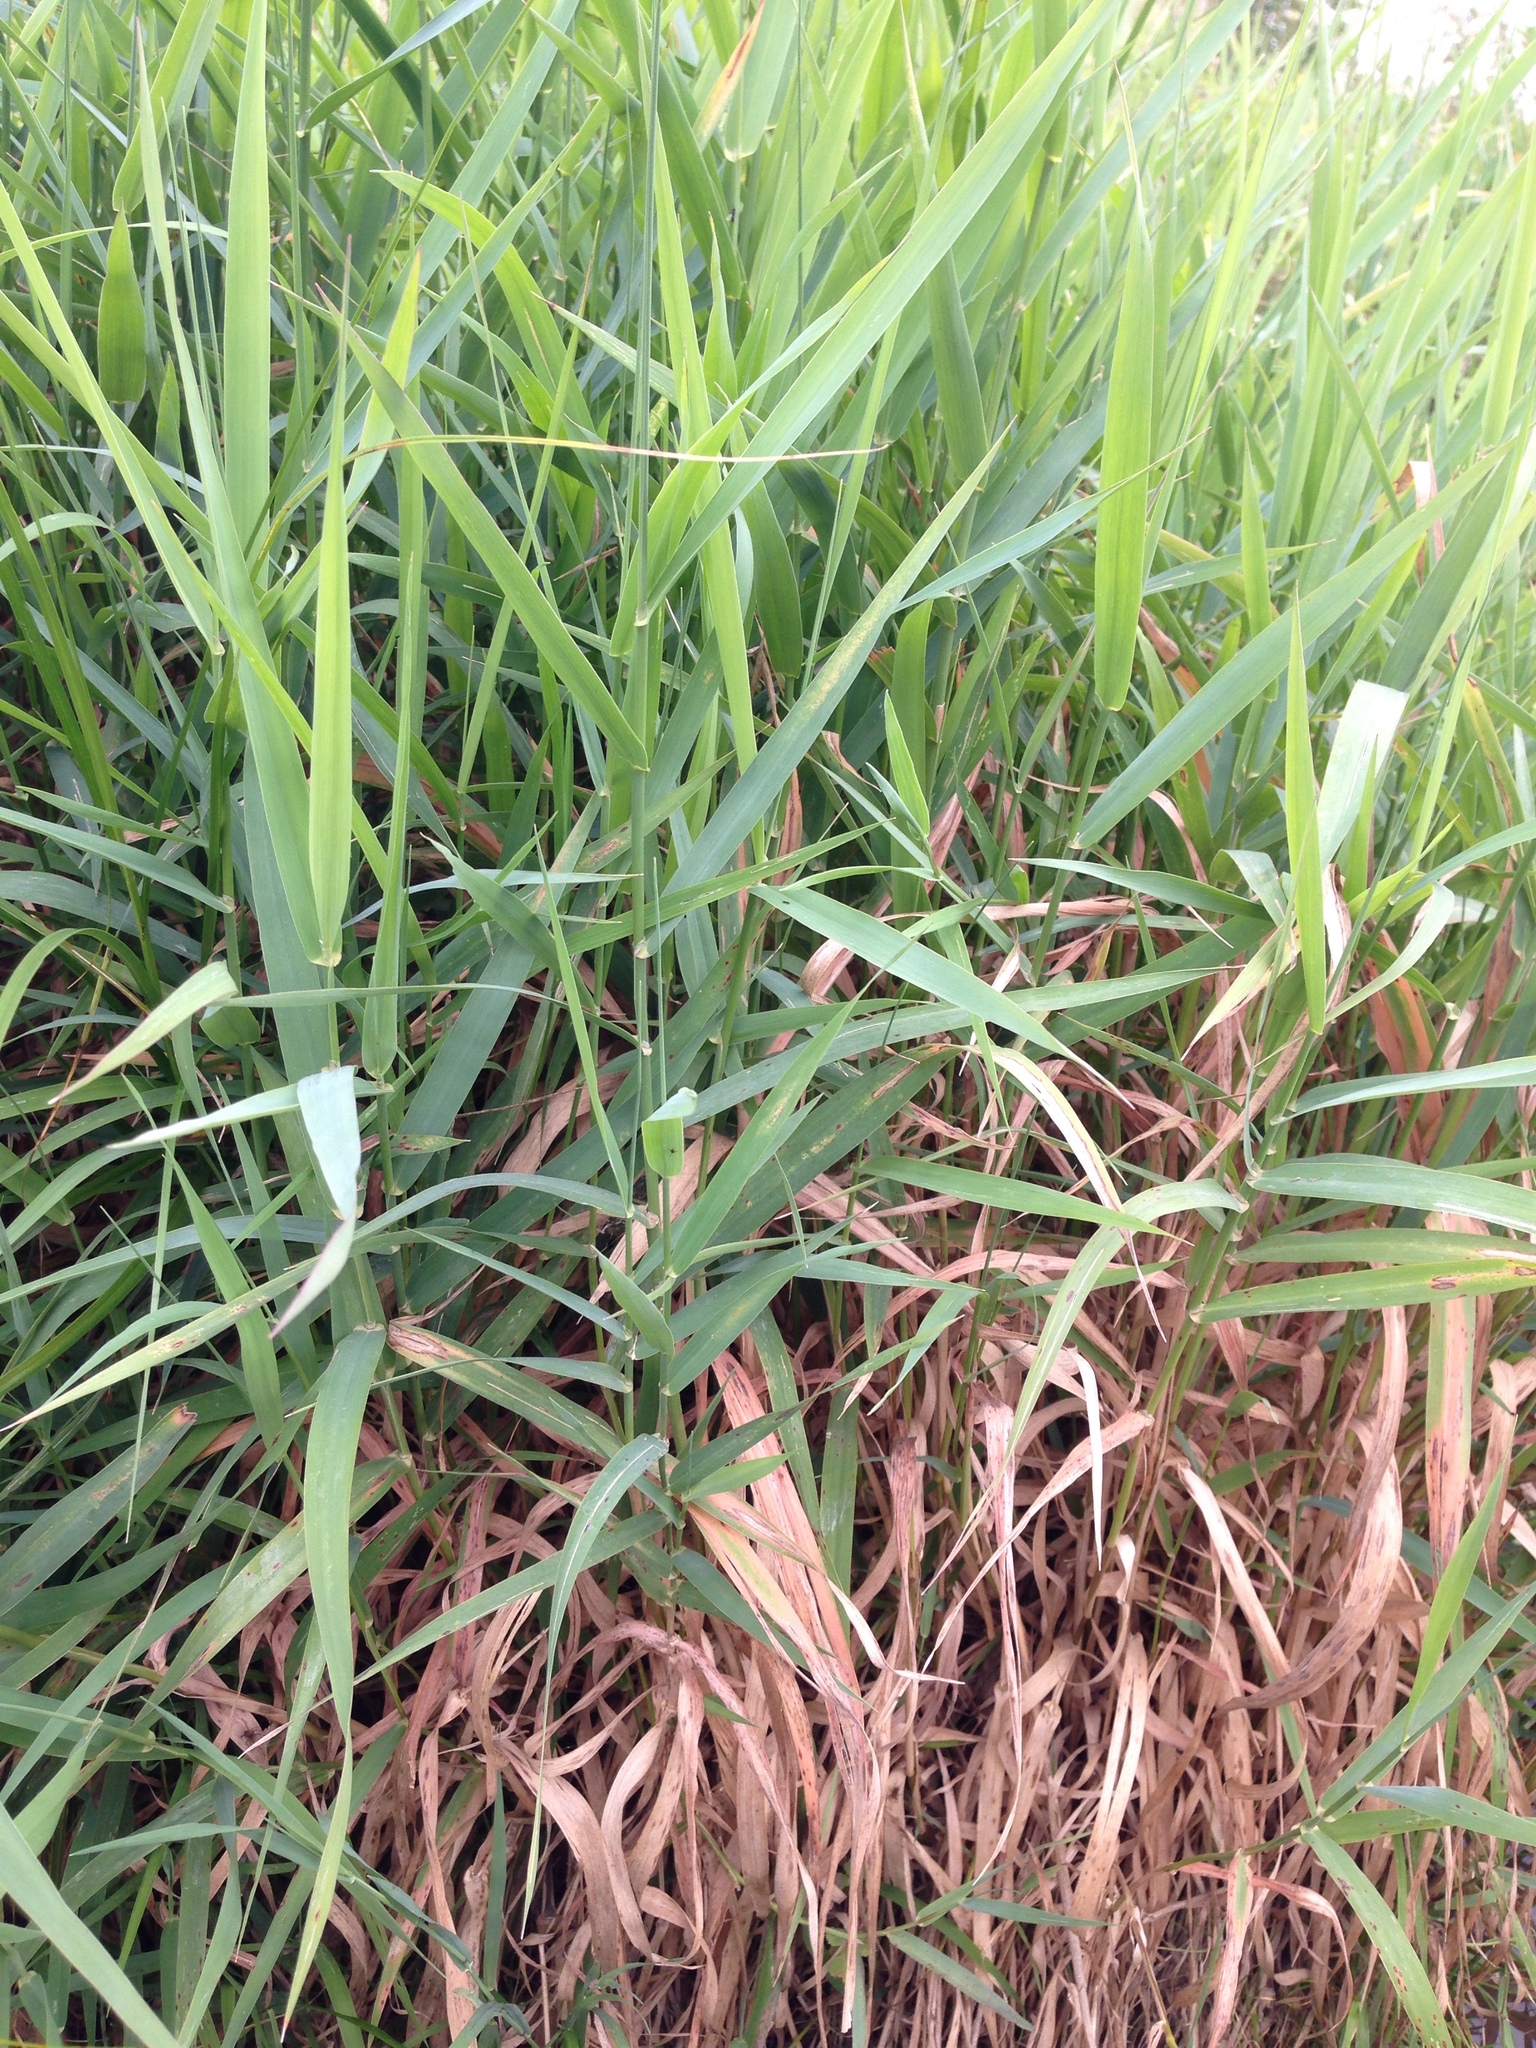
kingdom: Plantae
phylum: Tracheophyta
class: Liliopsida
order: Poales
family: Poaceae
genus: Phalaris
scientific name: Phalaris arundinacea
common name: Reed canary-grass
